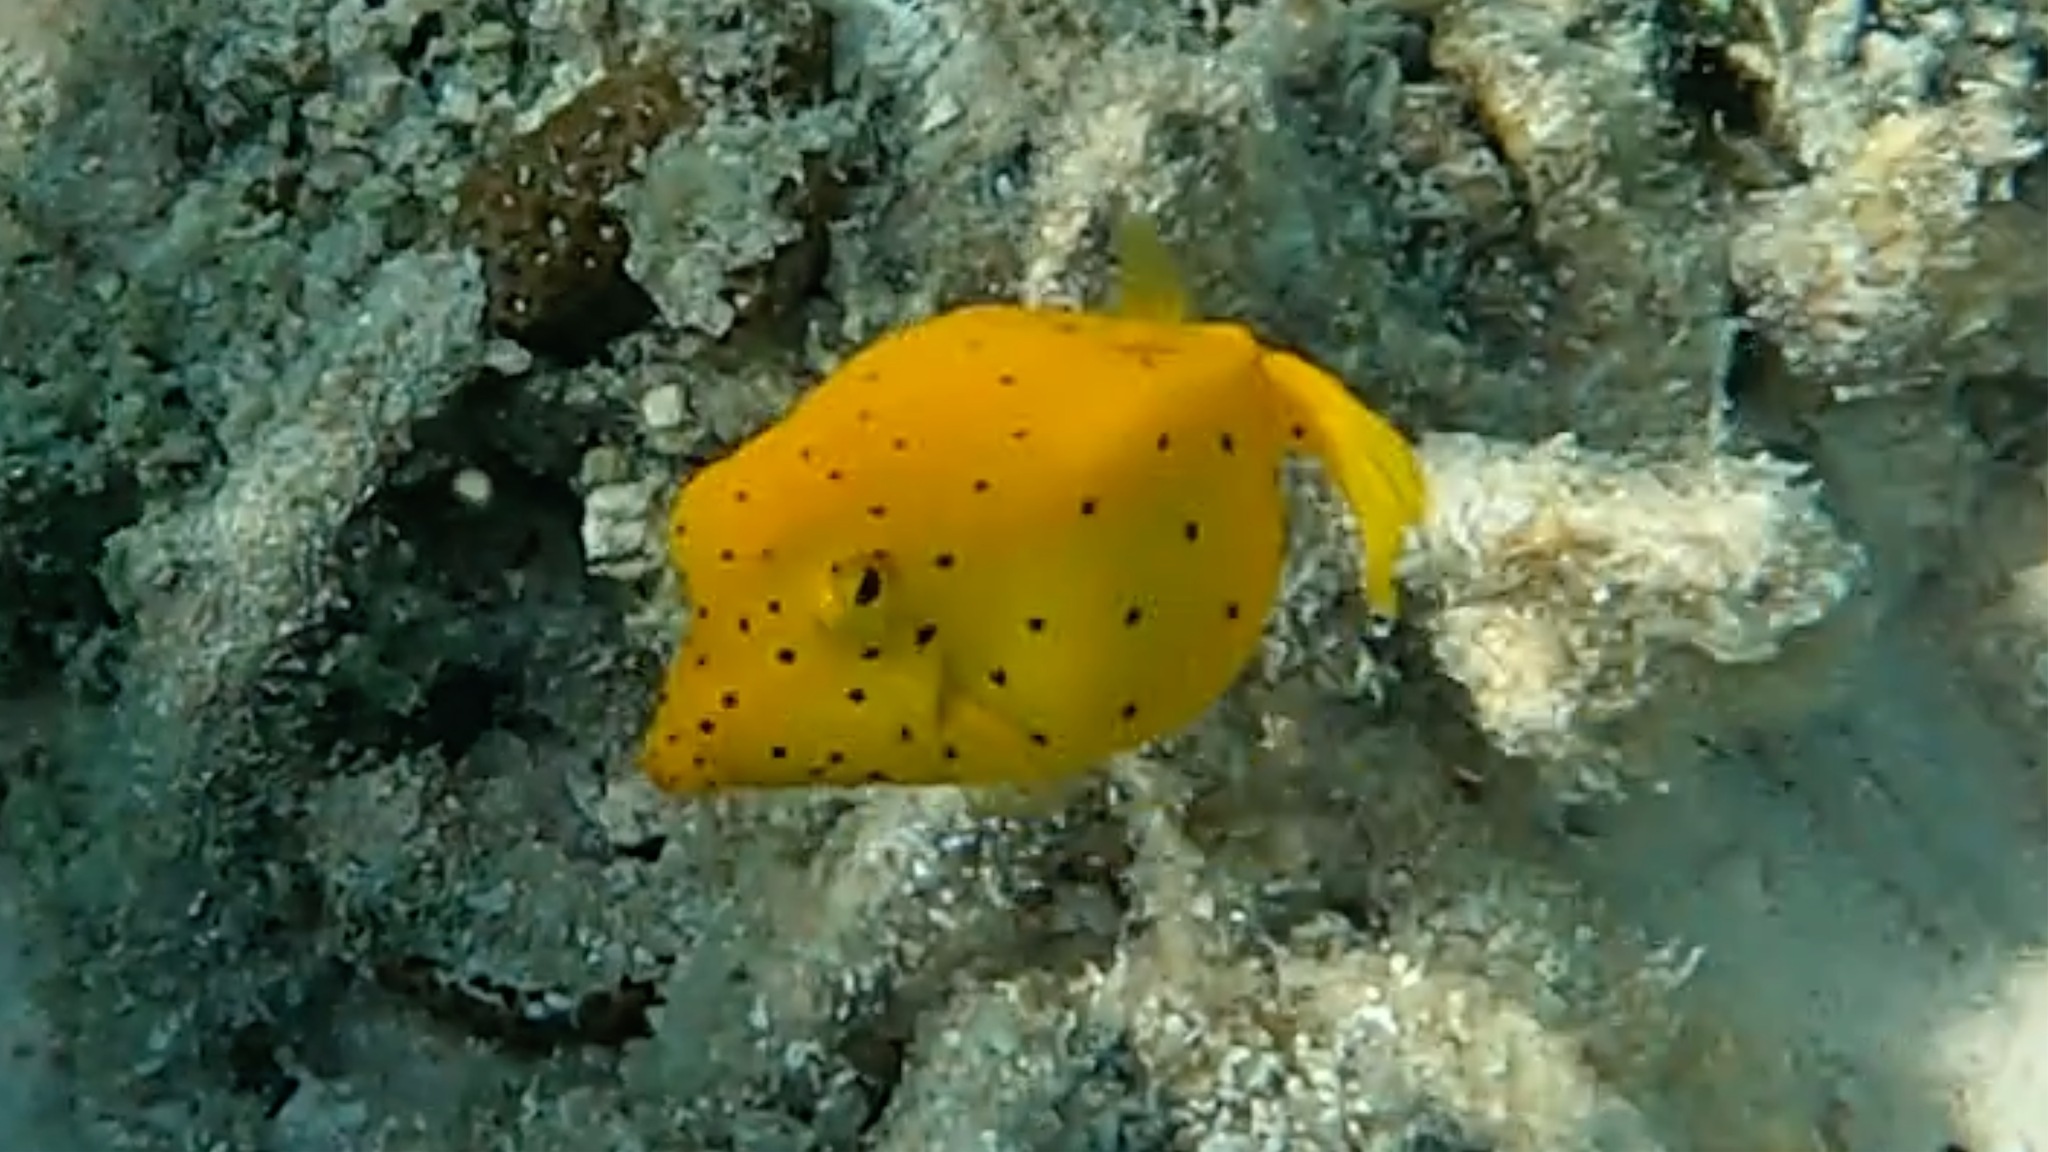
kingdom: Animalia
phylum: Chordata
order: Tetraodontiformes
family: Ostraciidae
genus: Ostracion
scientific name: Ostracion cubicus
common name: Cube trunkfish
